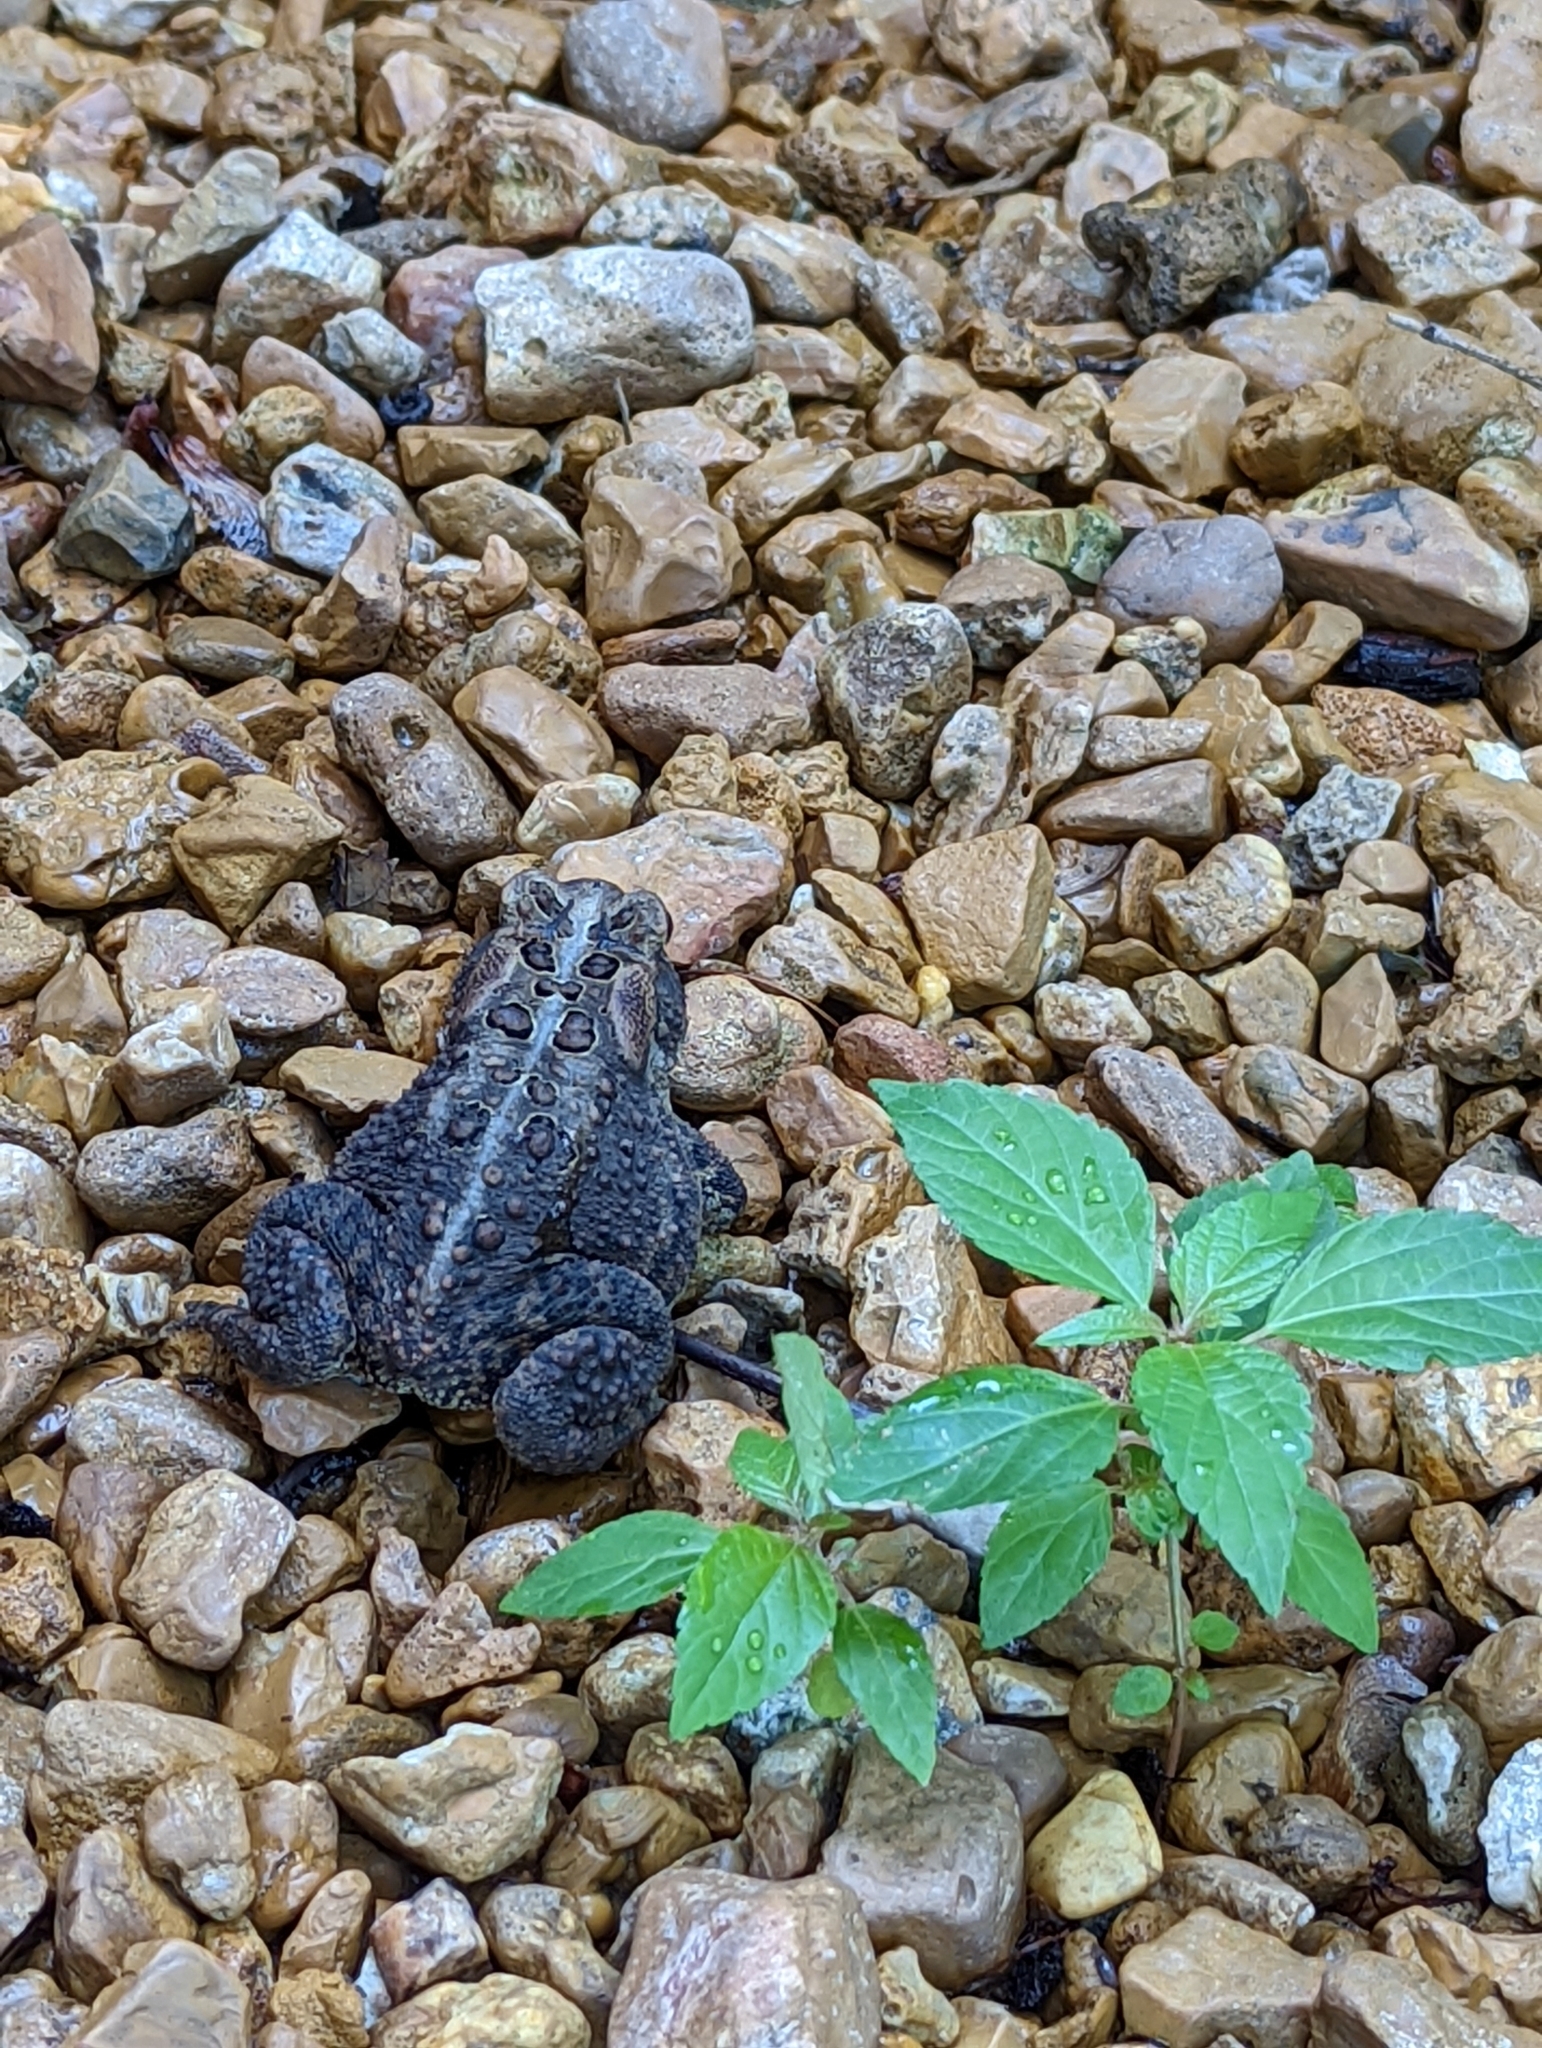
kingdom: Animalia
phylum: Chordata
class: Amphibia
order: Anura
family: Bufonidae
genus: Anaxyrus
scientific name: Anaxyrus americanus
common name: American toad
